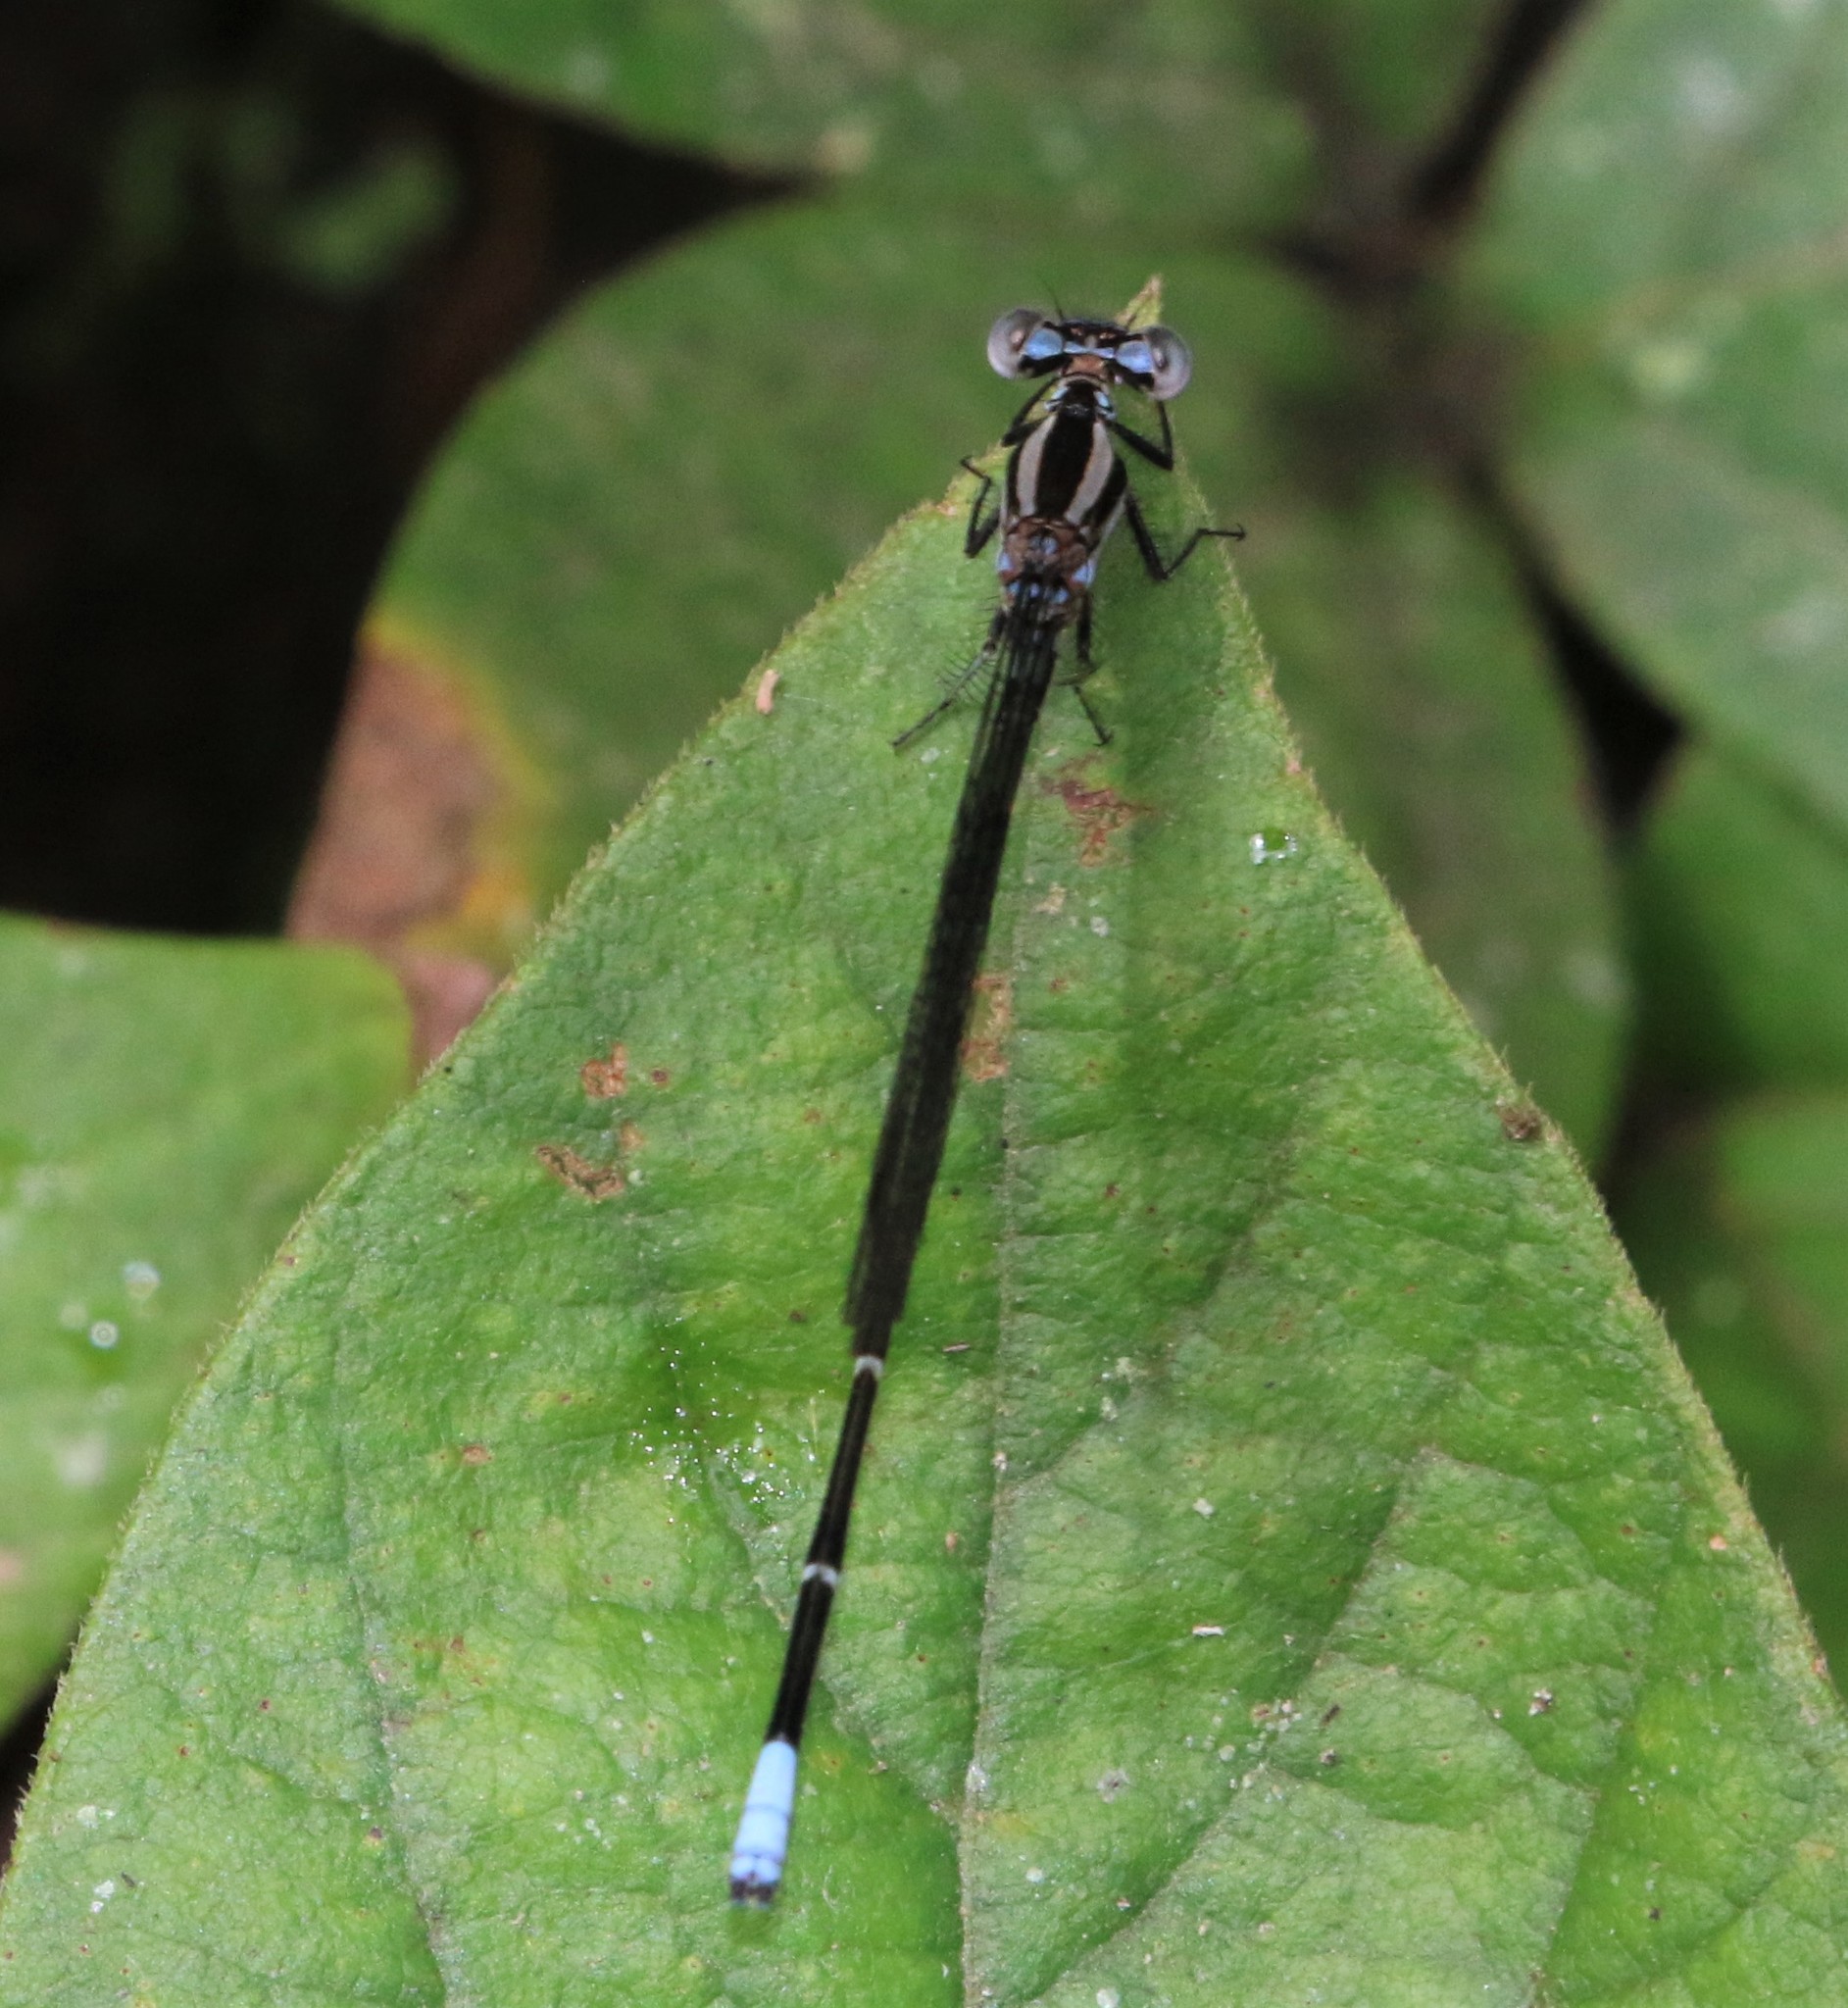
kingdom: Animalia
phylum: Arthropoda
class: Insecta
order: Odonata
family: Coenagrionidae
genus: Argia
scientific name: Argia pulla
